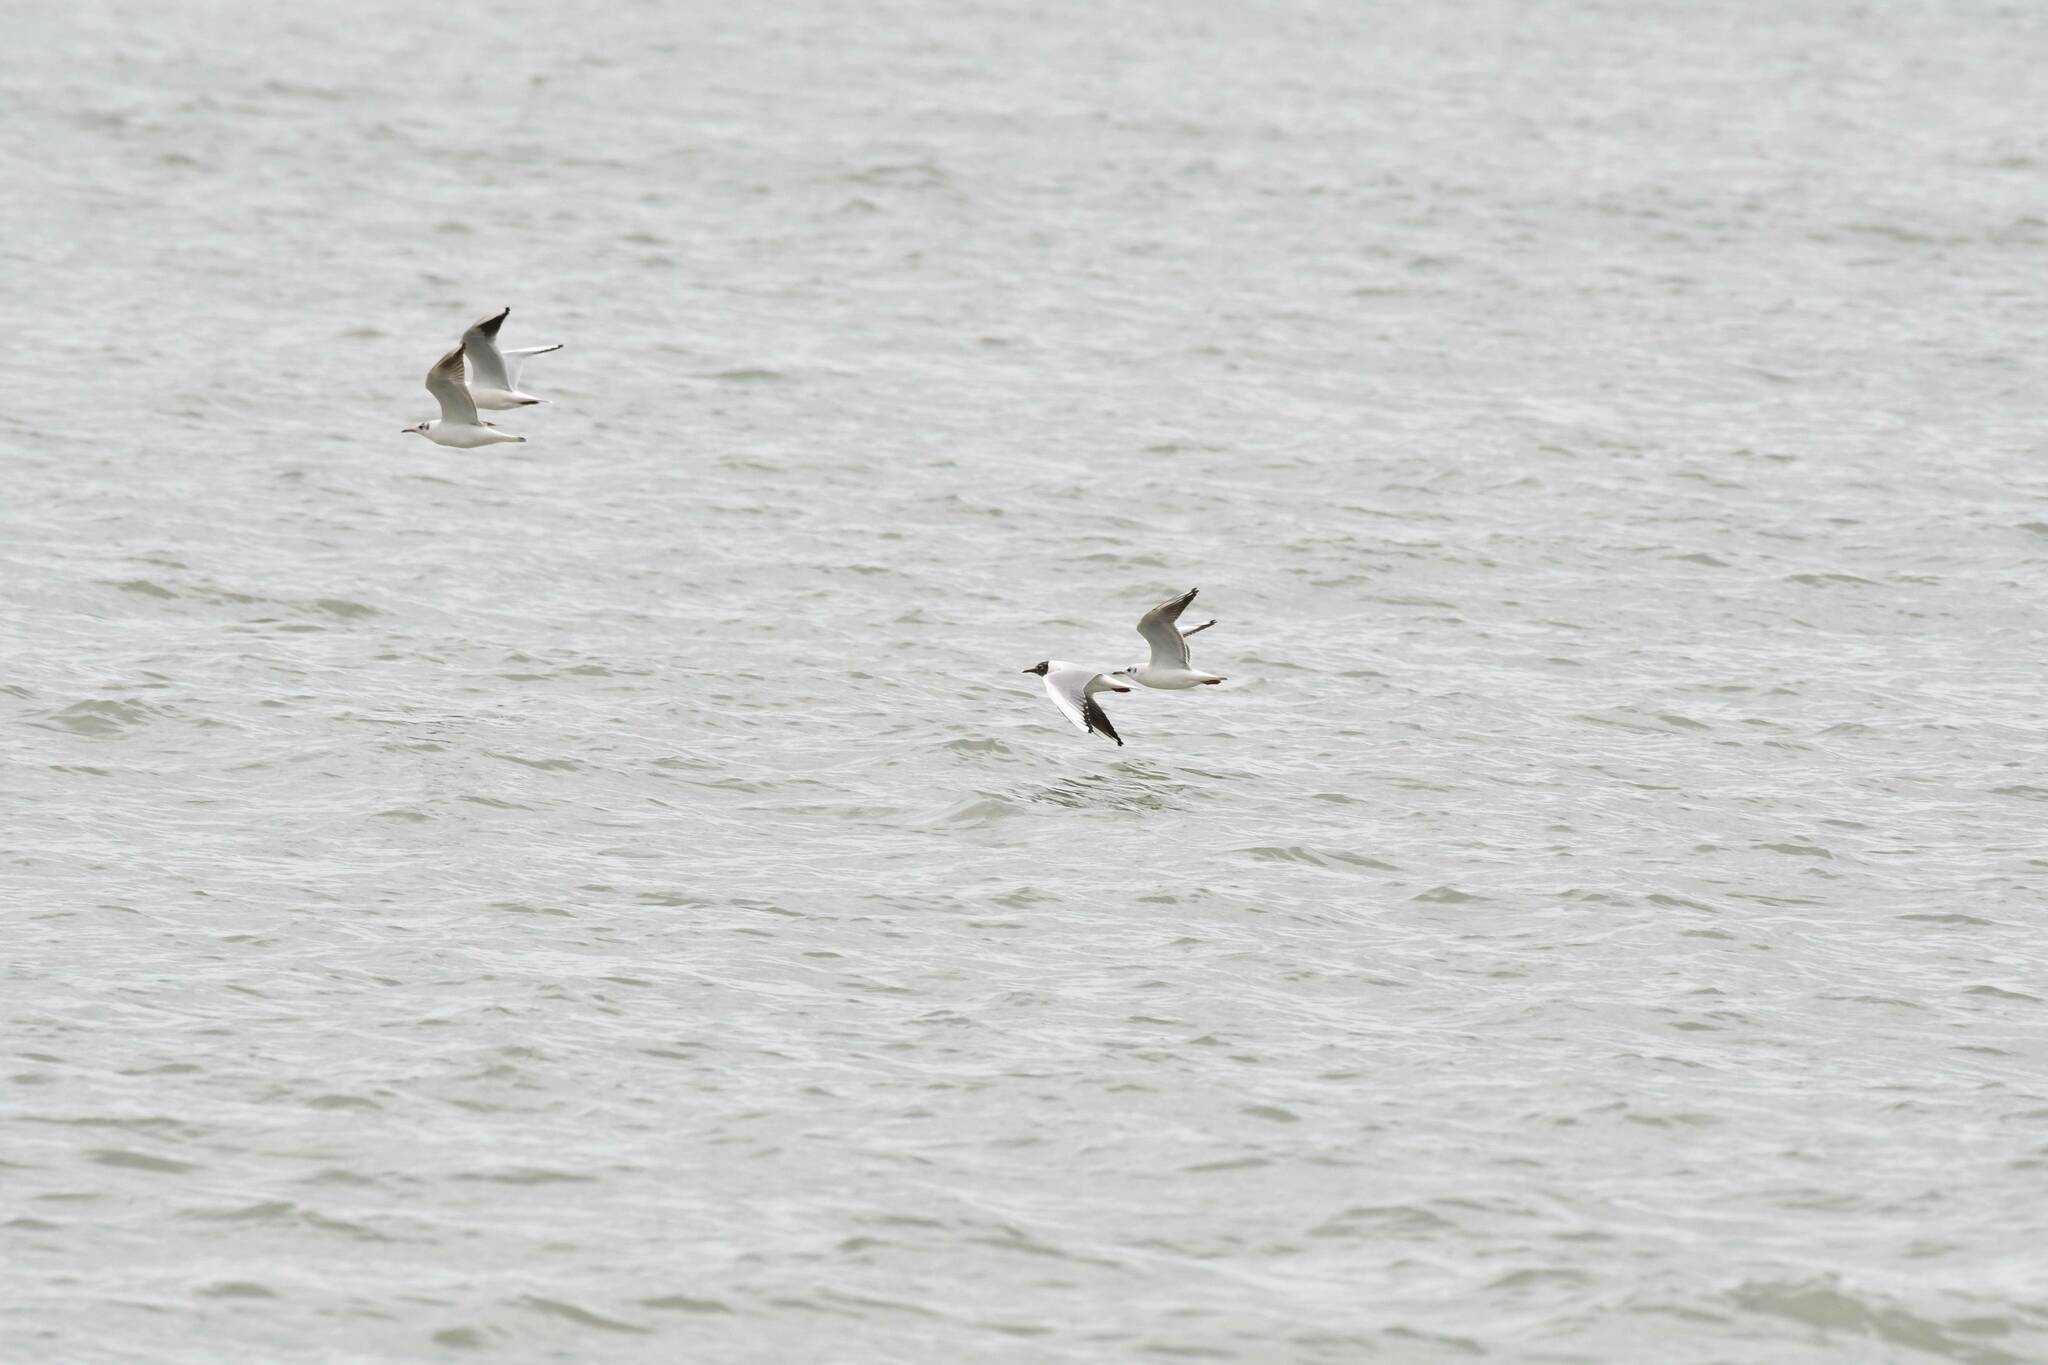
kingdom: Animalia
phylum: Chordata
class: Aves
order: Charadriiformes
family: Laridae
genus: Chroicocephalus
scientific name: Chroicocephalus ridibundus
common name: Black-headed gull
